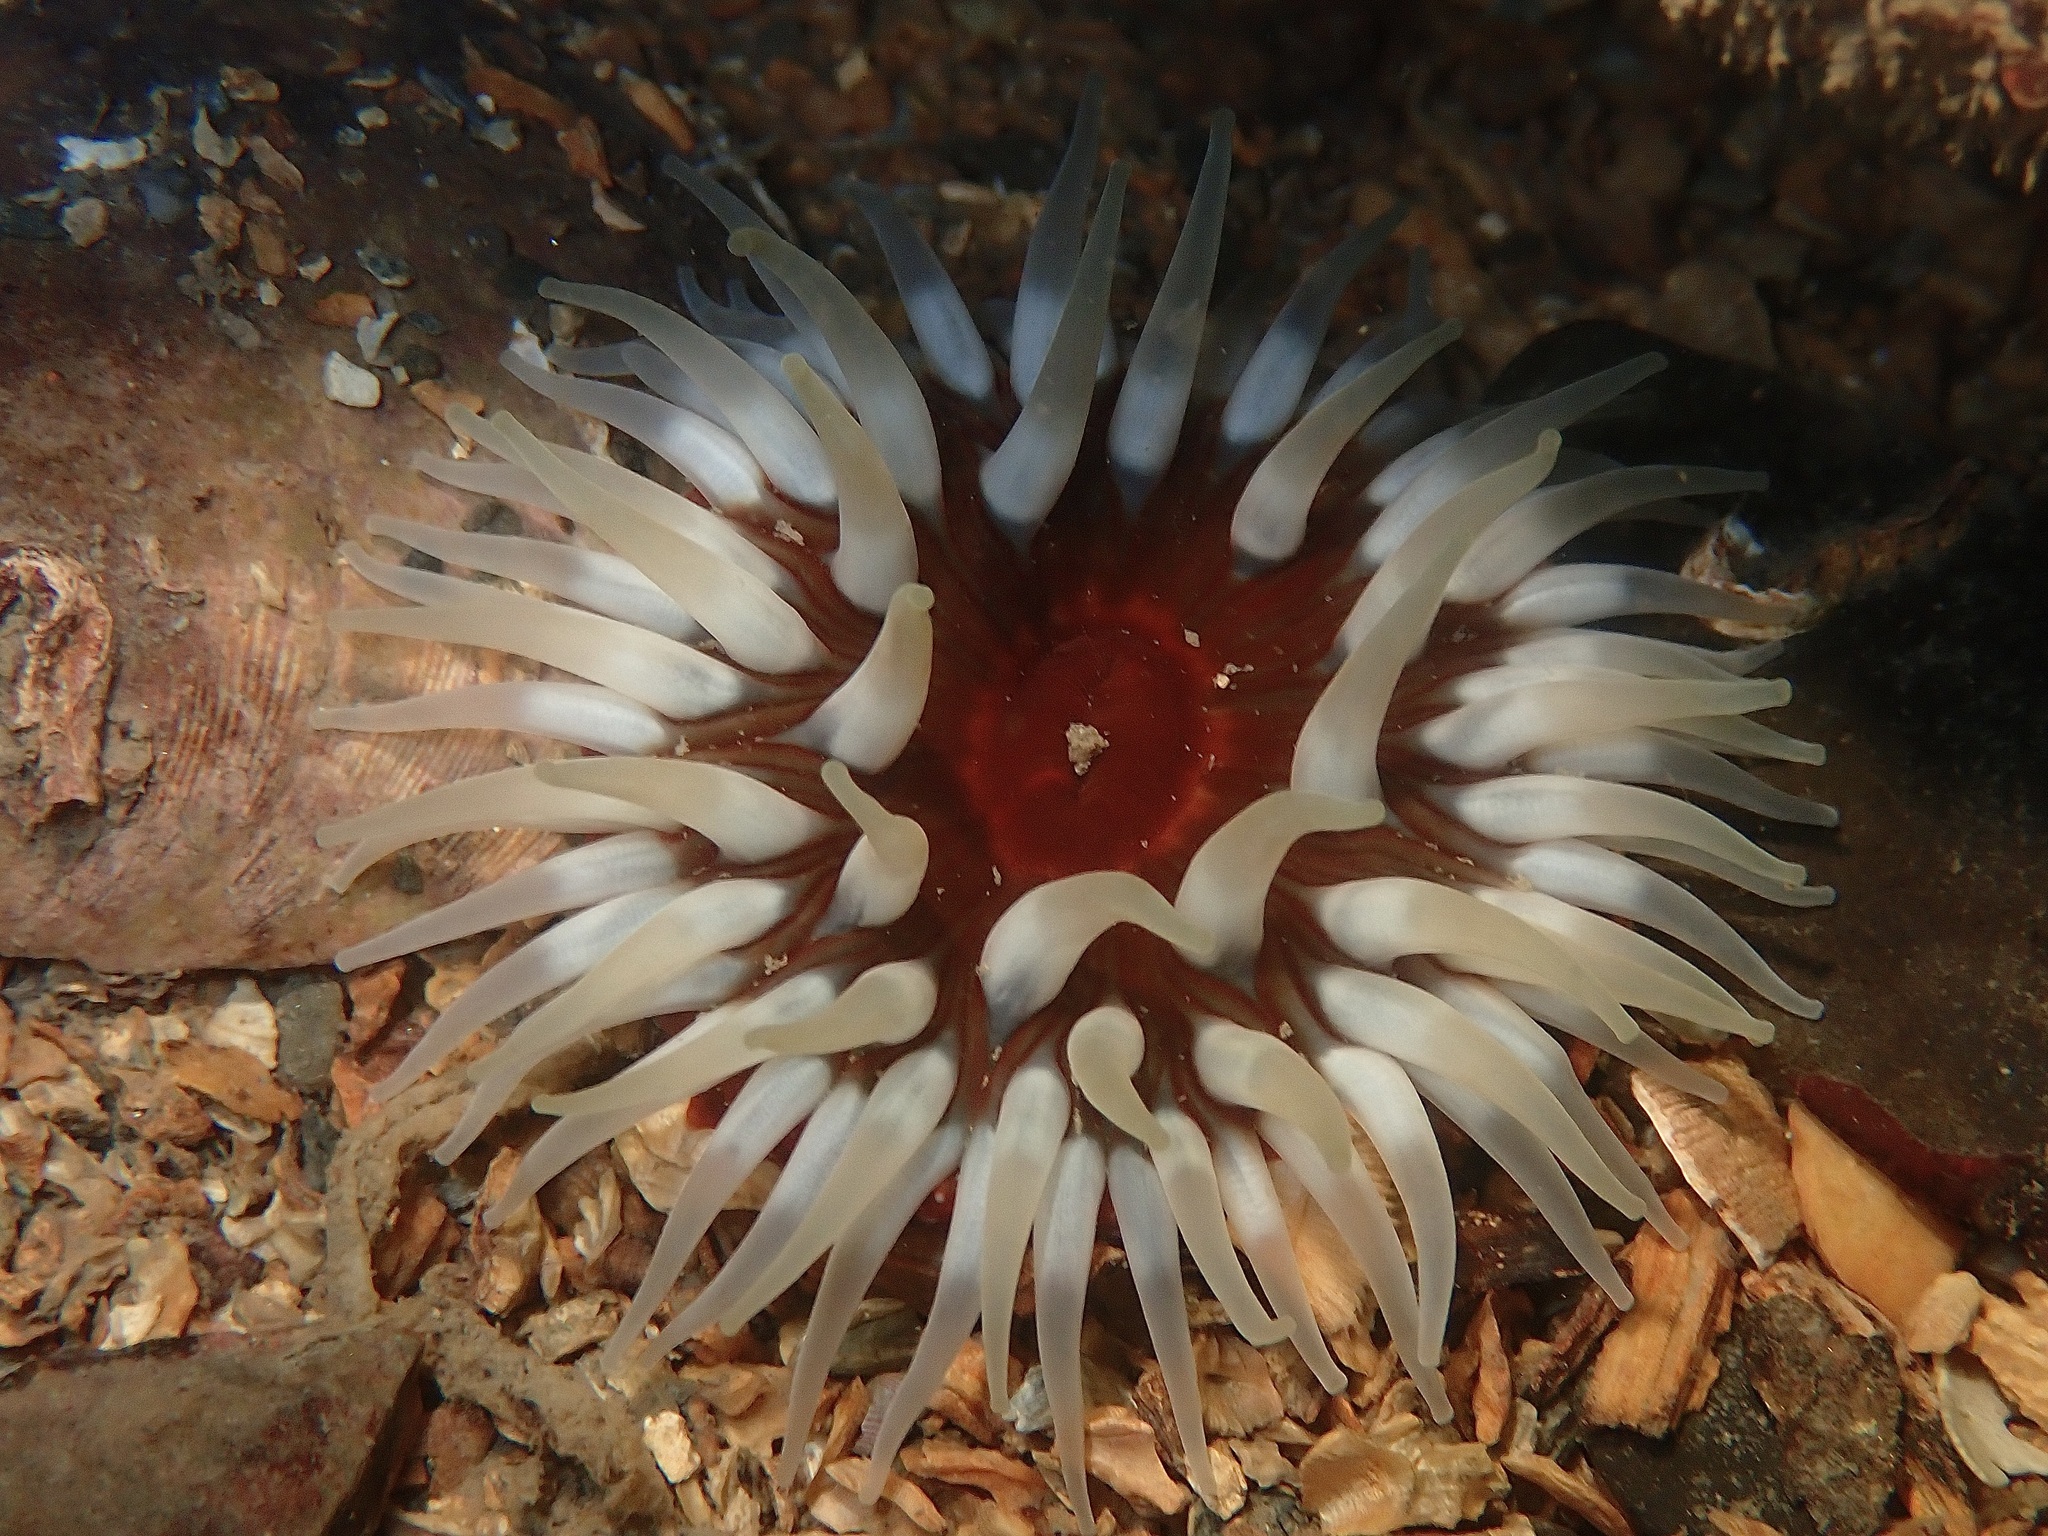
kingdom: Animalia
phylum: Cnidaria
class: Anthozoa
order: Actiniaria
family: Actiniidae
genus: Urticina
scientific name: Urticina felina
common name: Dahlia anemone
